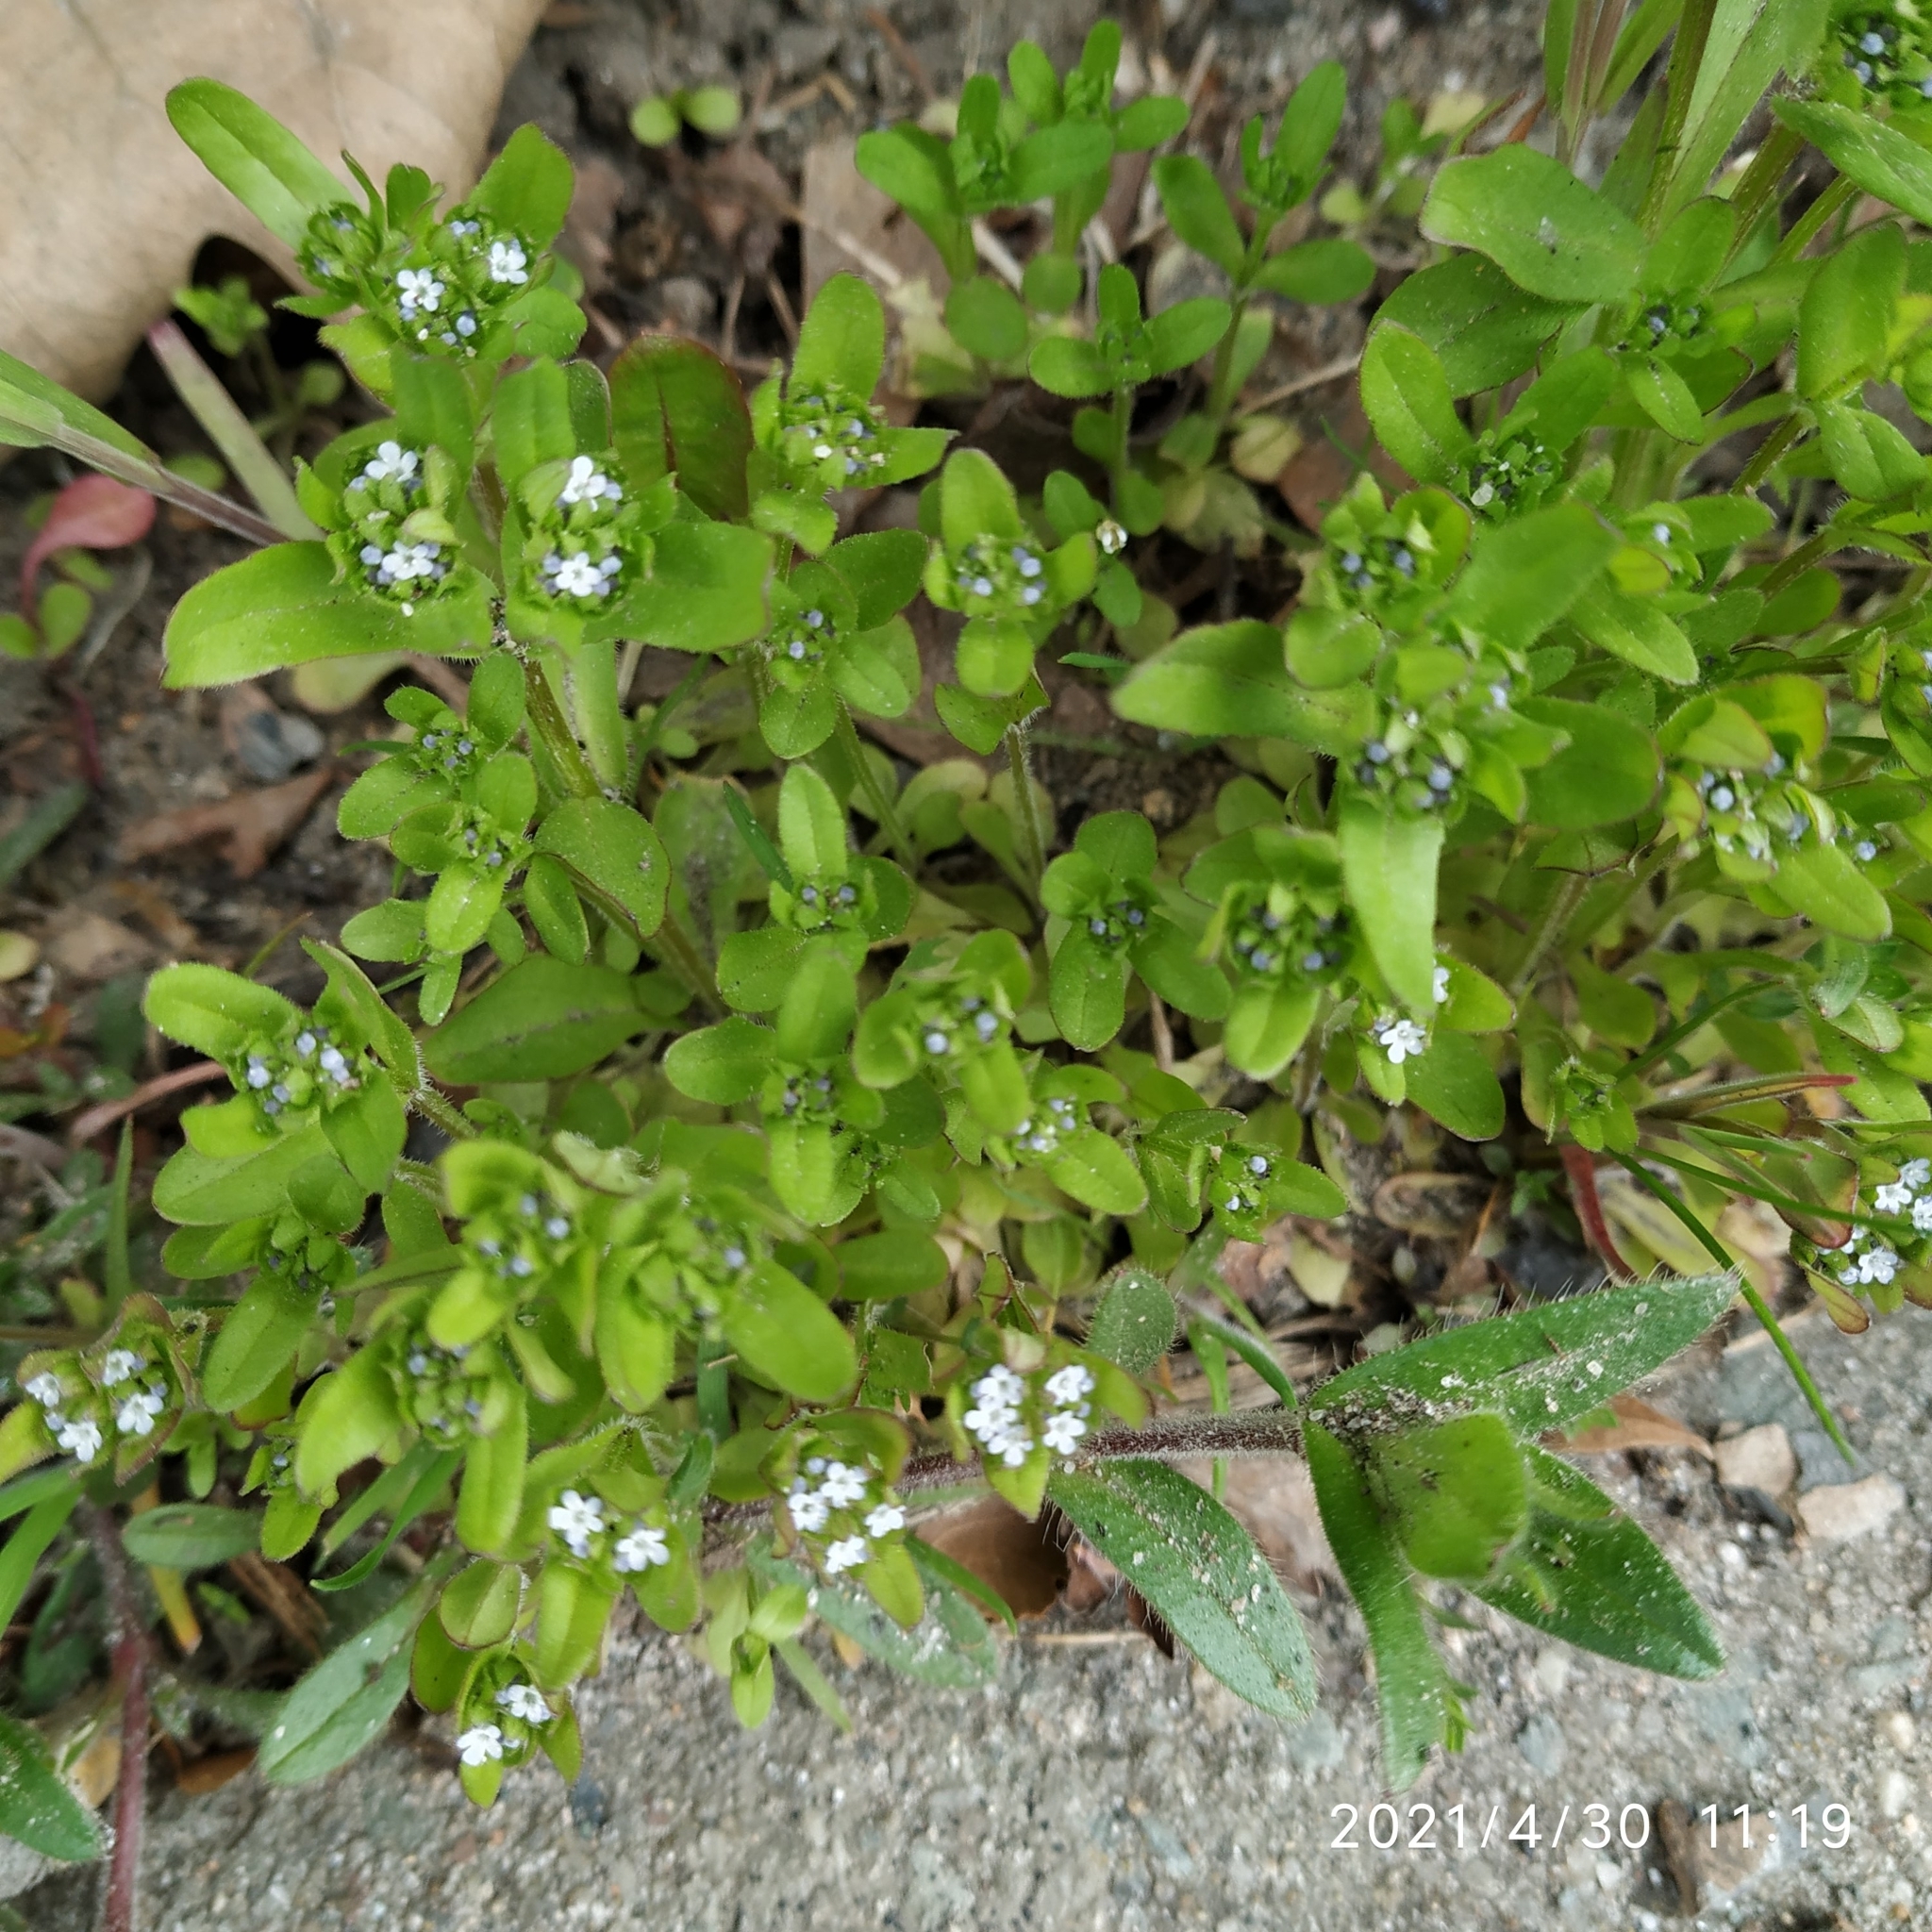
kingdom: Plantae
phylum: Tracheophyta
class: Magnoliopsida
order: Dipsacales
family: Caprifoliaceae
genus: Valerianella
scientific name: Valerianella locusta
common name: Common cornsalad
